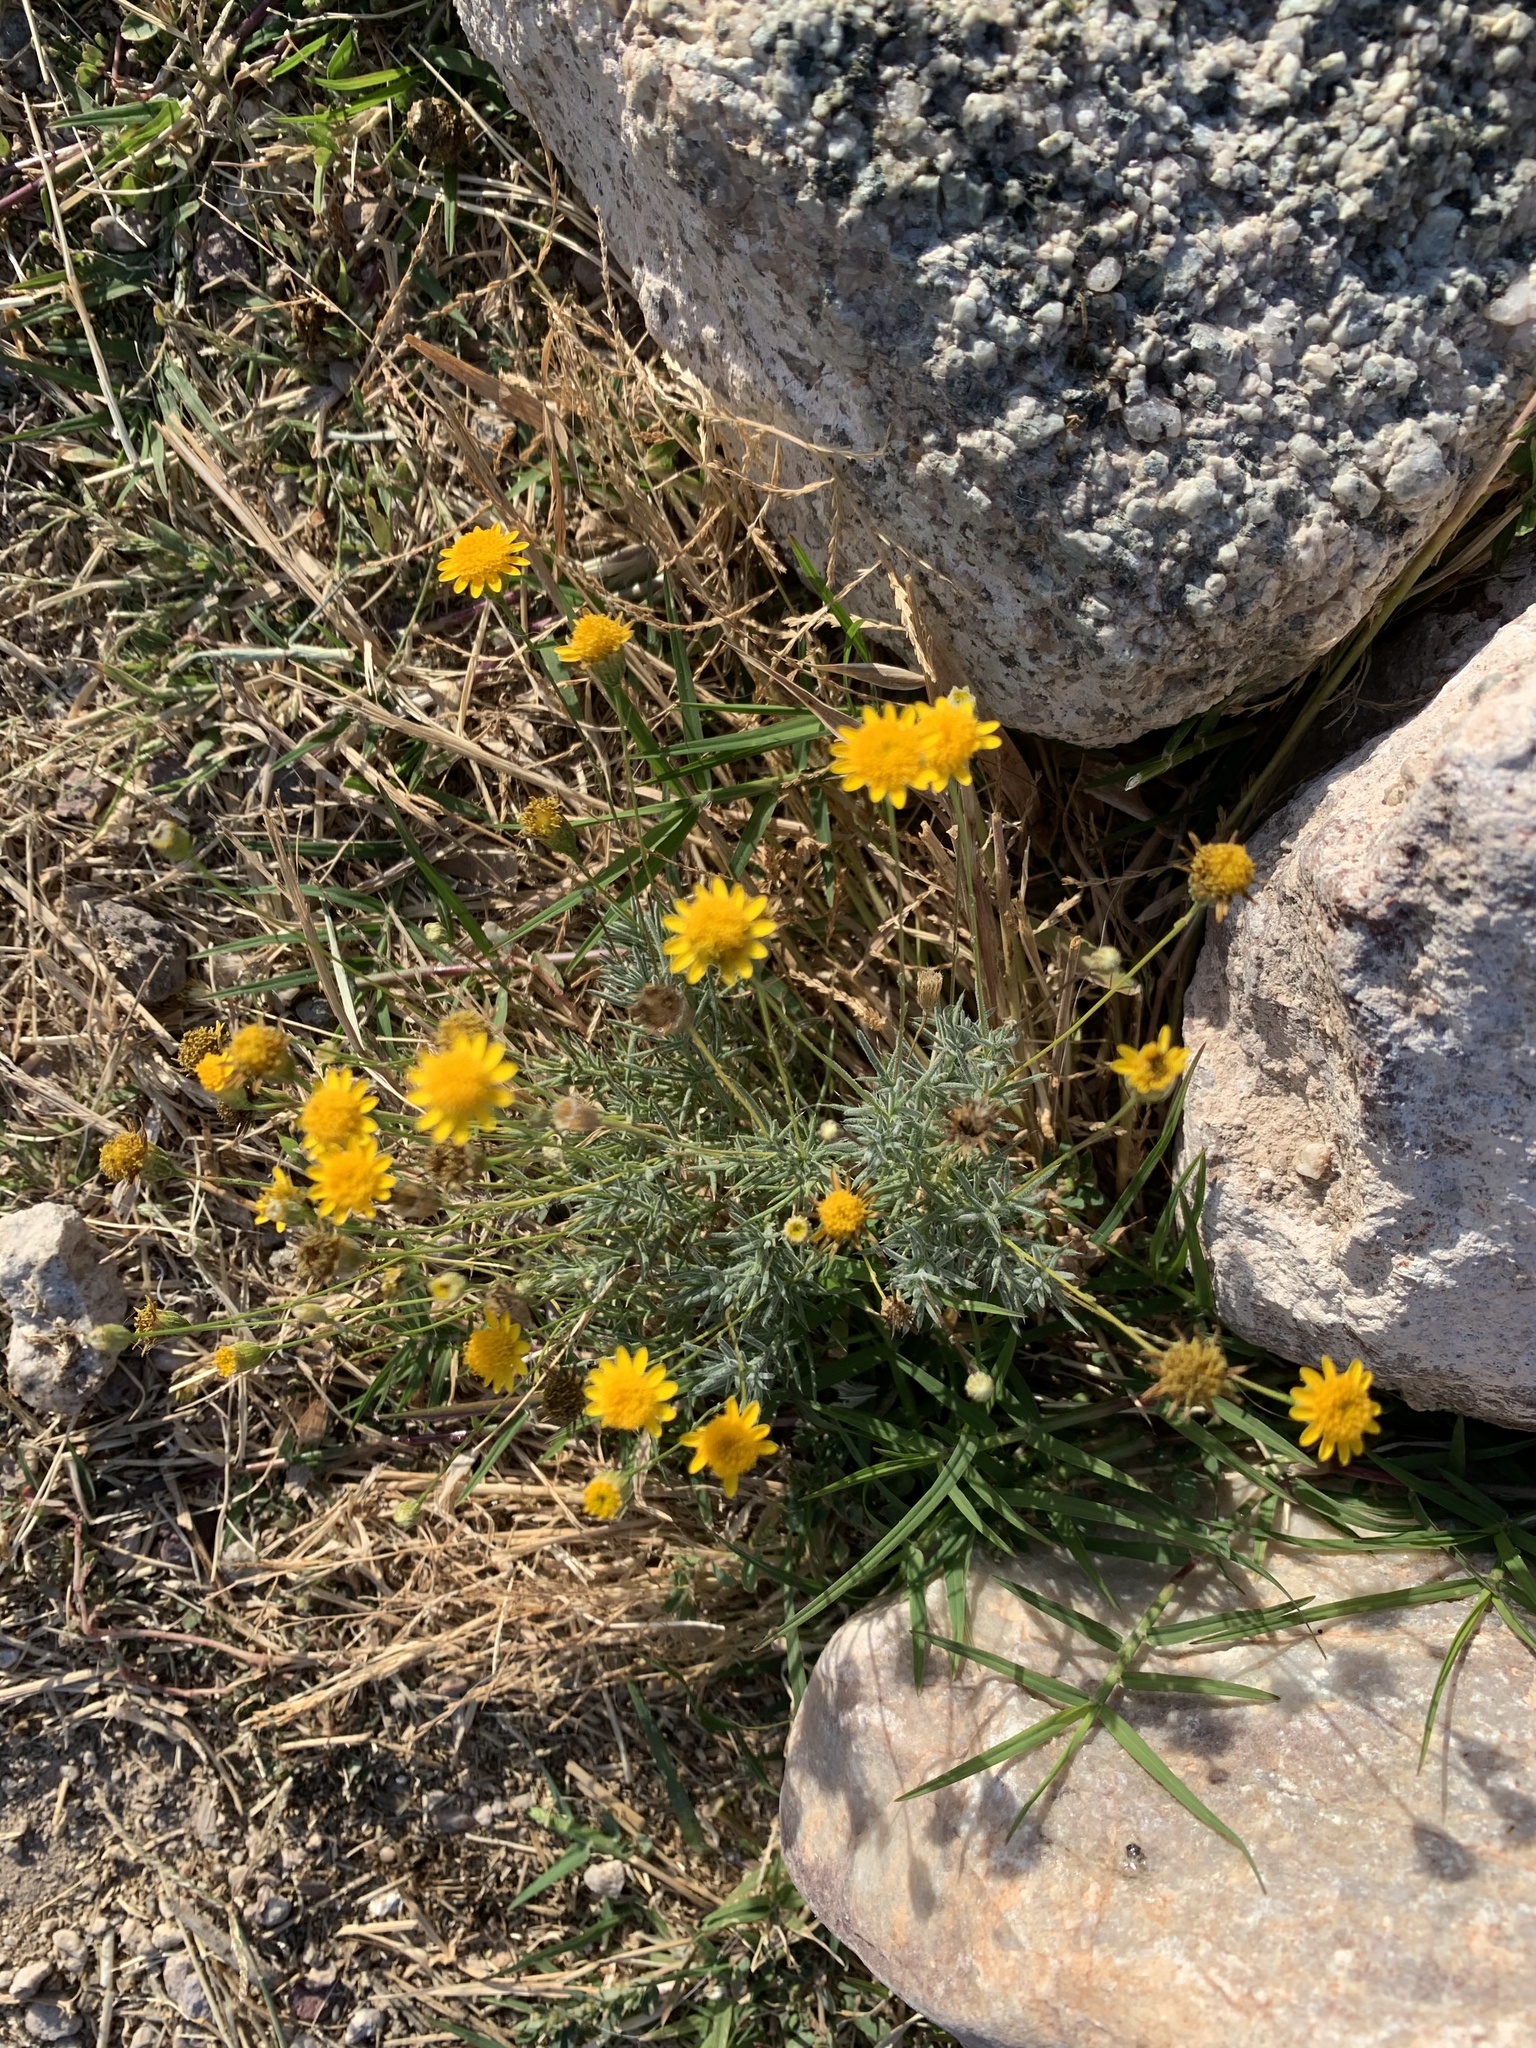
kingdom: Plantae
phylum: Tracheophyta
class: Magnoliopsida
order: Asterales
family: Asteraceae
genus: Lasthenia
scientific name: Lasthenia californica
